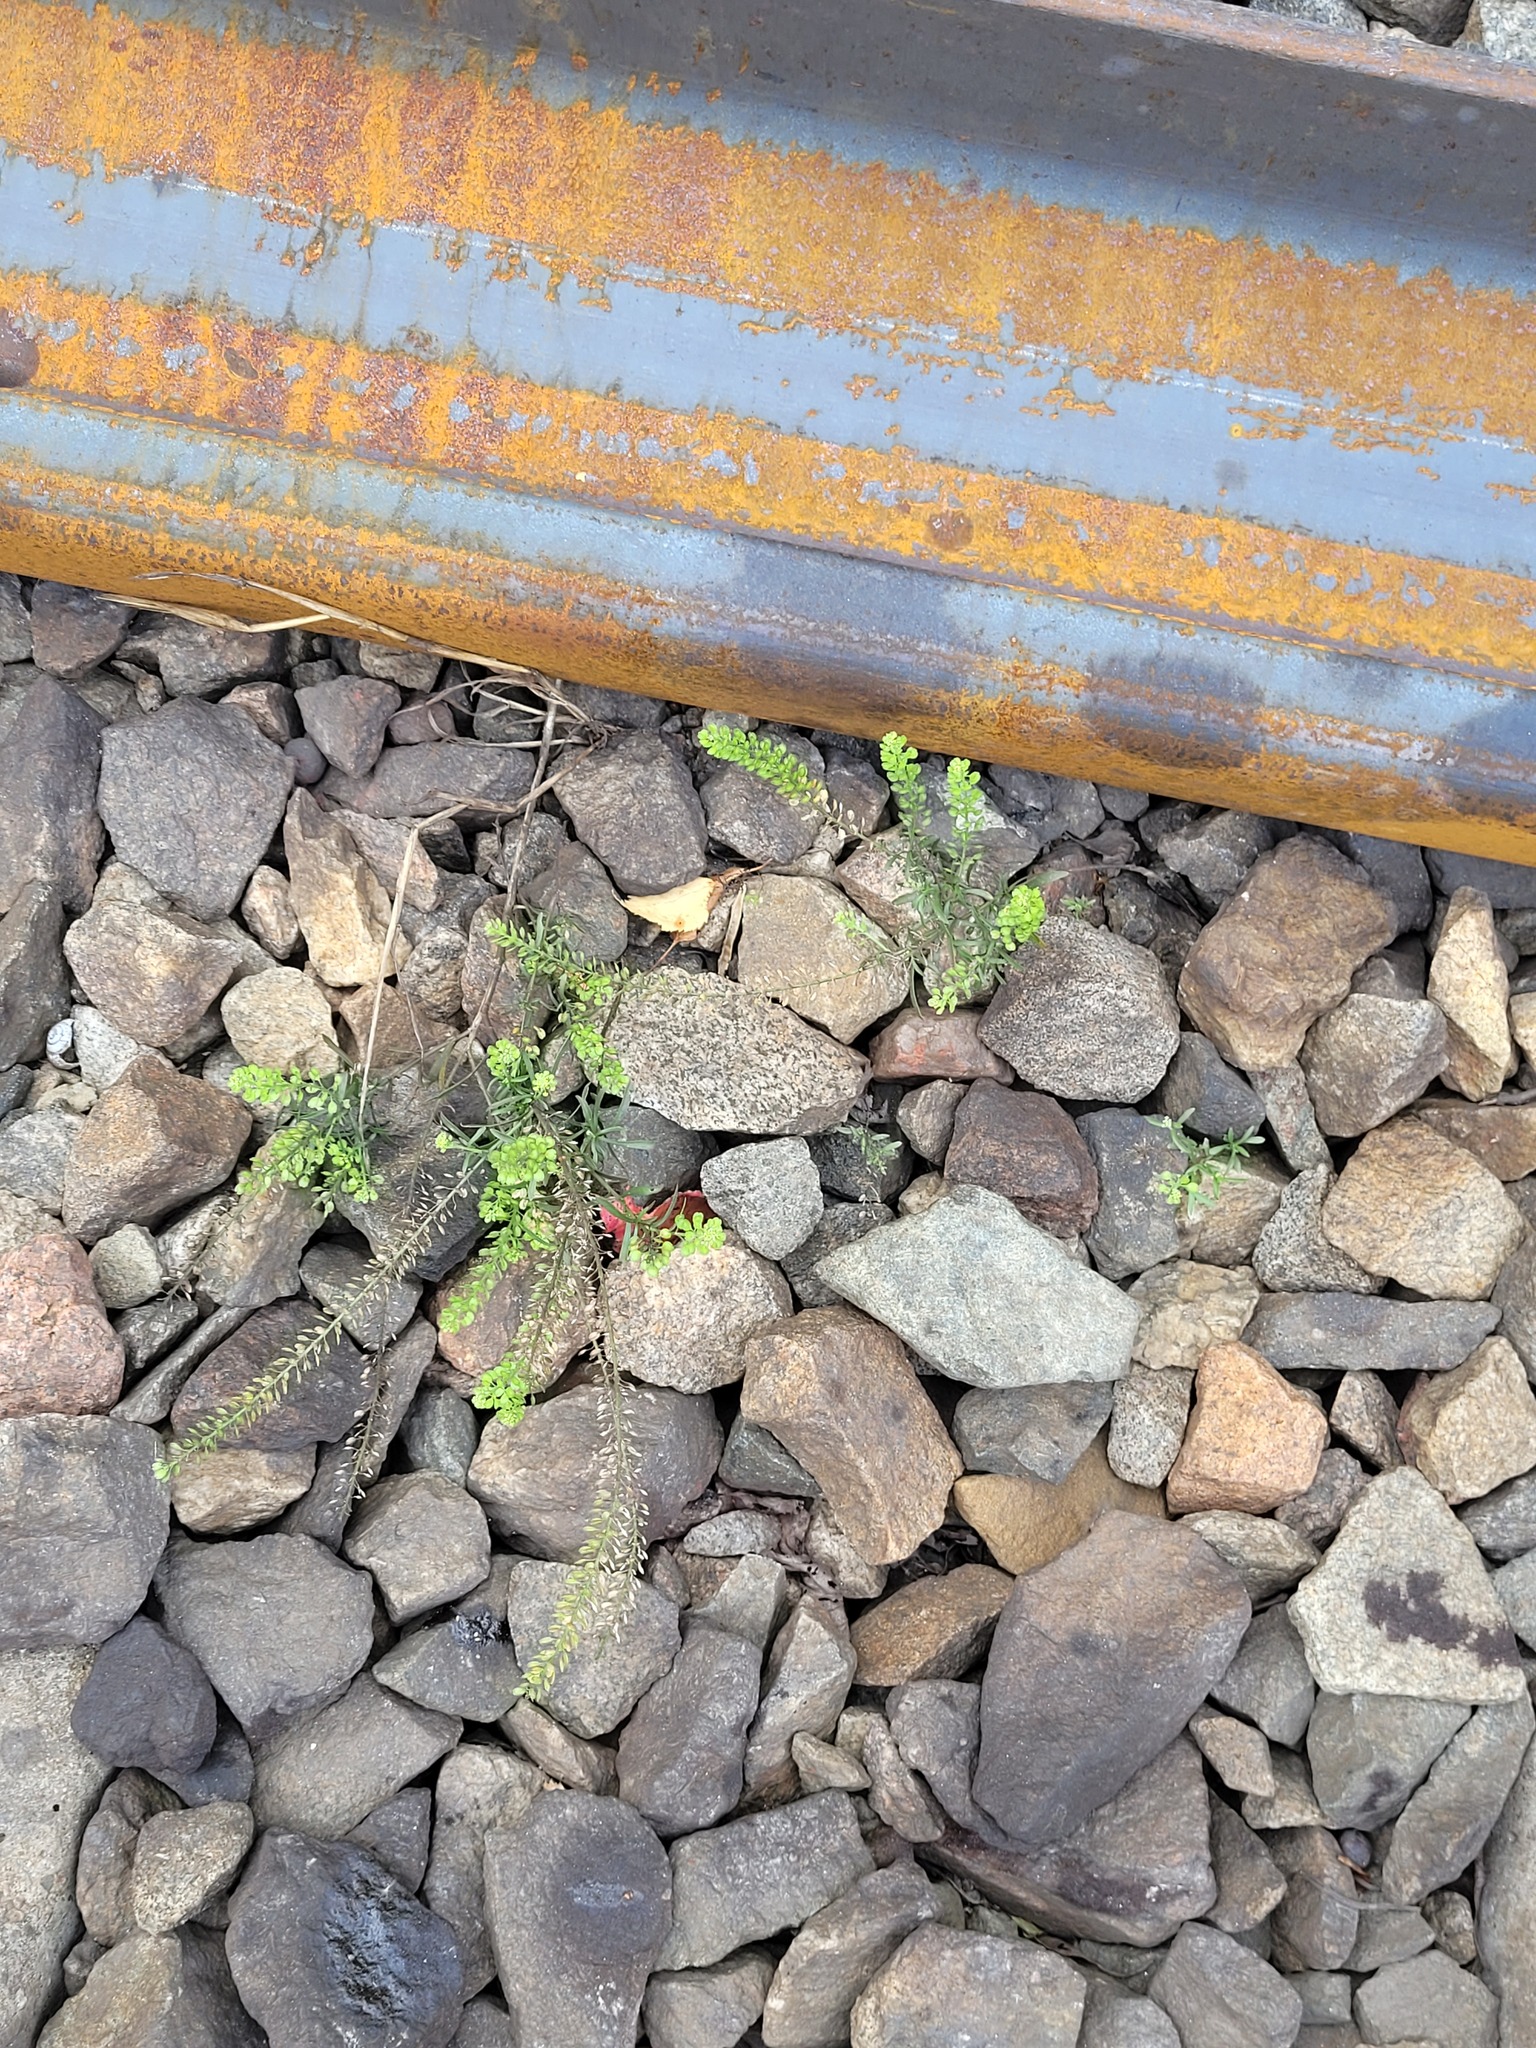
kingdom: Plantae
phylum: Tracheophyta
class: Magnoliopsida
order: Brassicales
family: Brassicaceae
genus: Lepidium
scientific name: Lepidium densiflorum
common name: Miner's pepperwort
